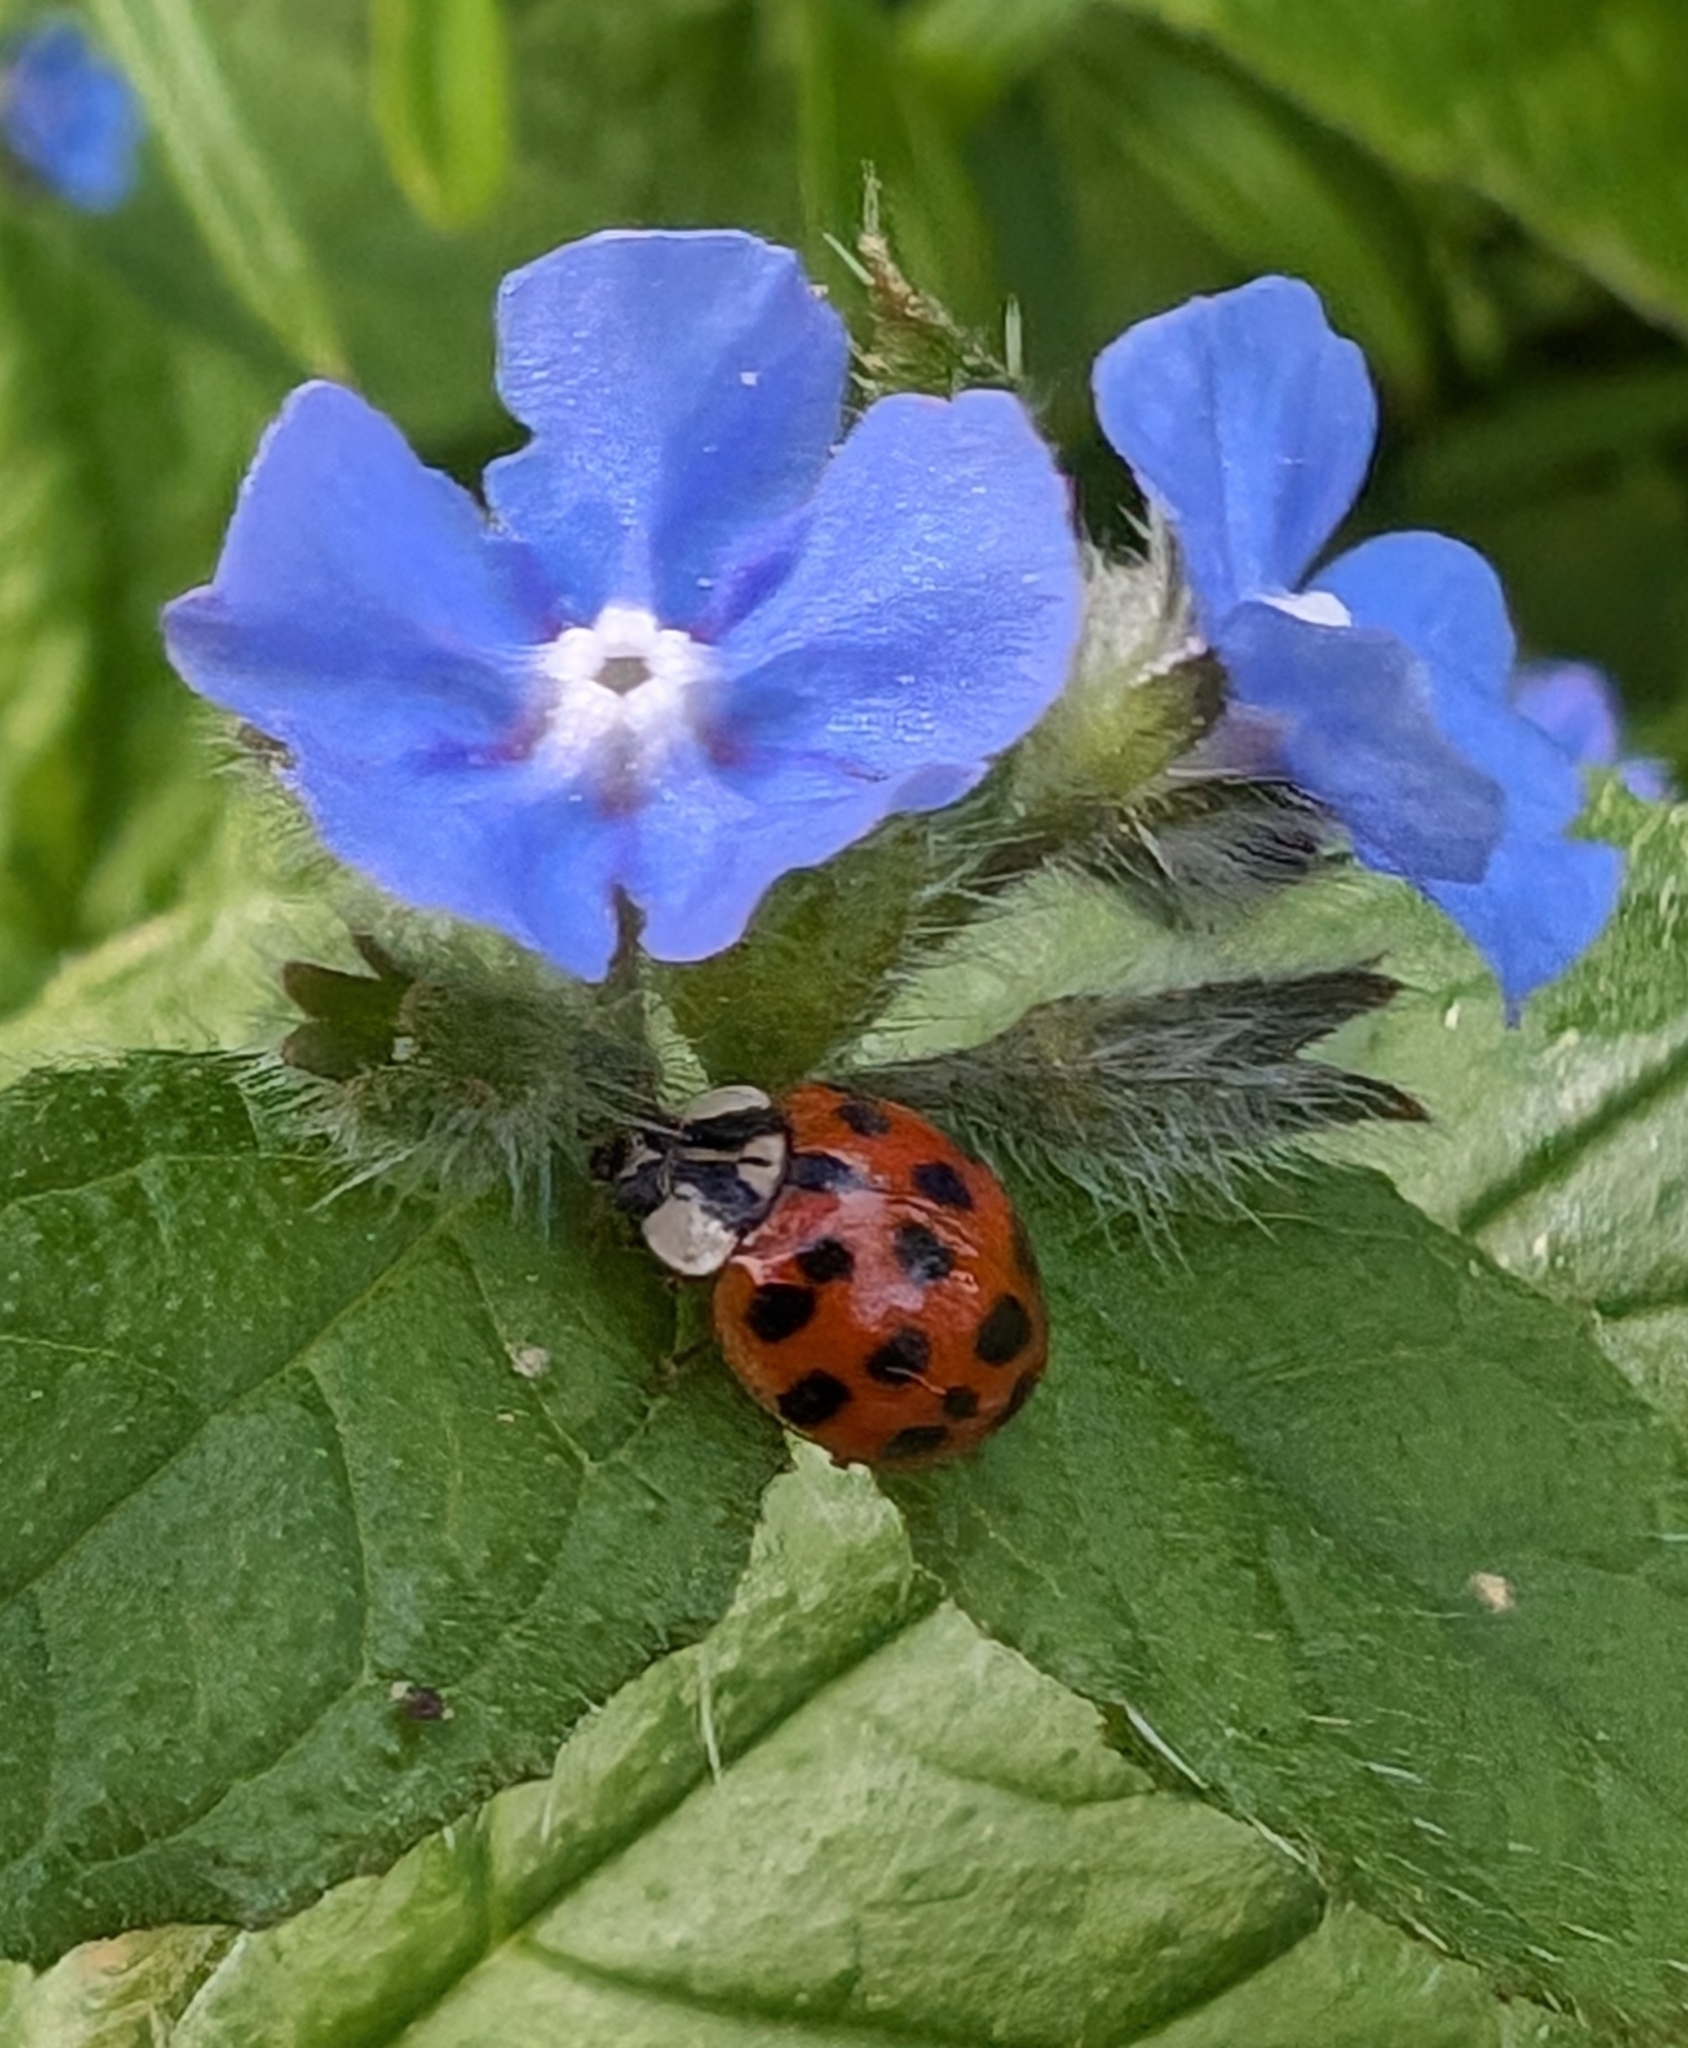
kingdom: Animalia
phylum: Arthropoda
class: Insecta
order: Coleoptera
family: Coccinellidae
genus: Harmonia
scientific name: Harmonia axyridis
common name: Harlequin ladybird
